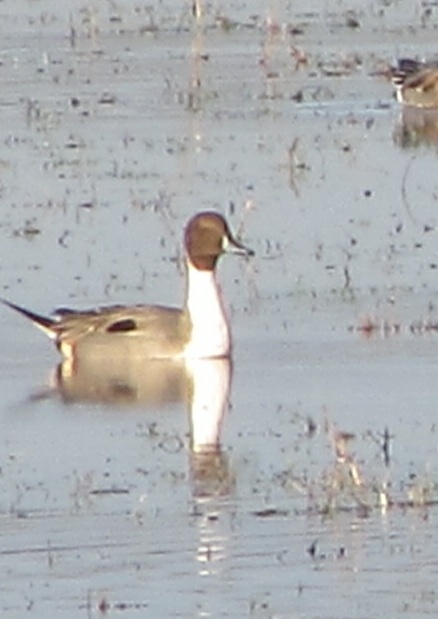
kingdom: Animalia
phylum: Chordata
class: Aves
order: Anseriformes
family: Anatidae
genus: Anas
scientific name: Anas acuta
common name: Northern pintail
